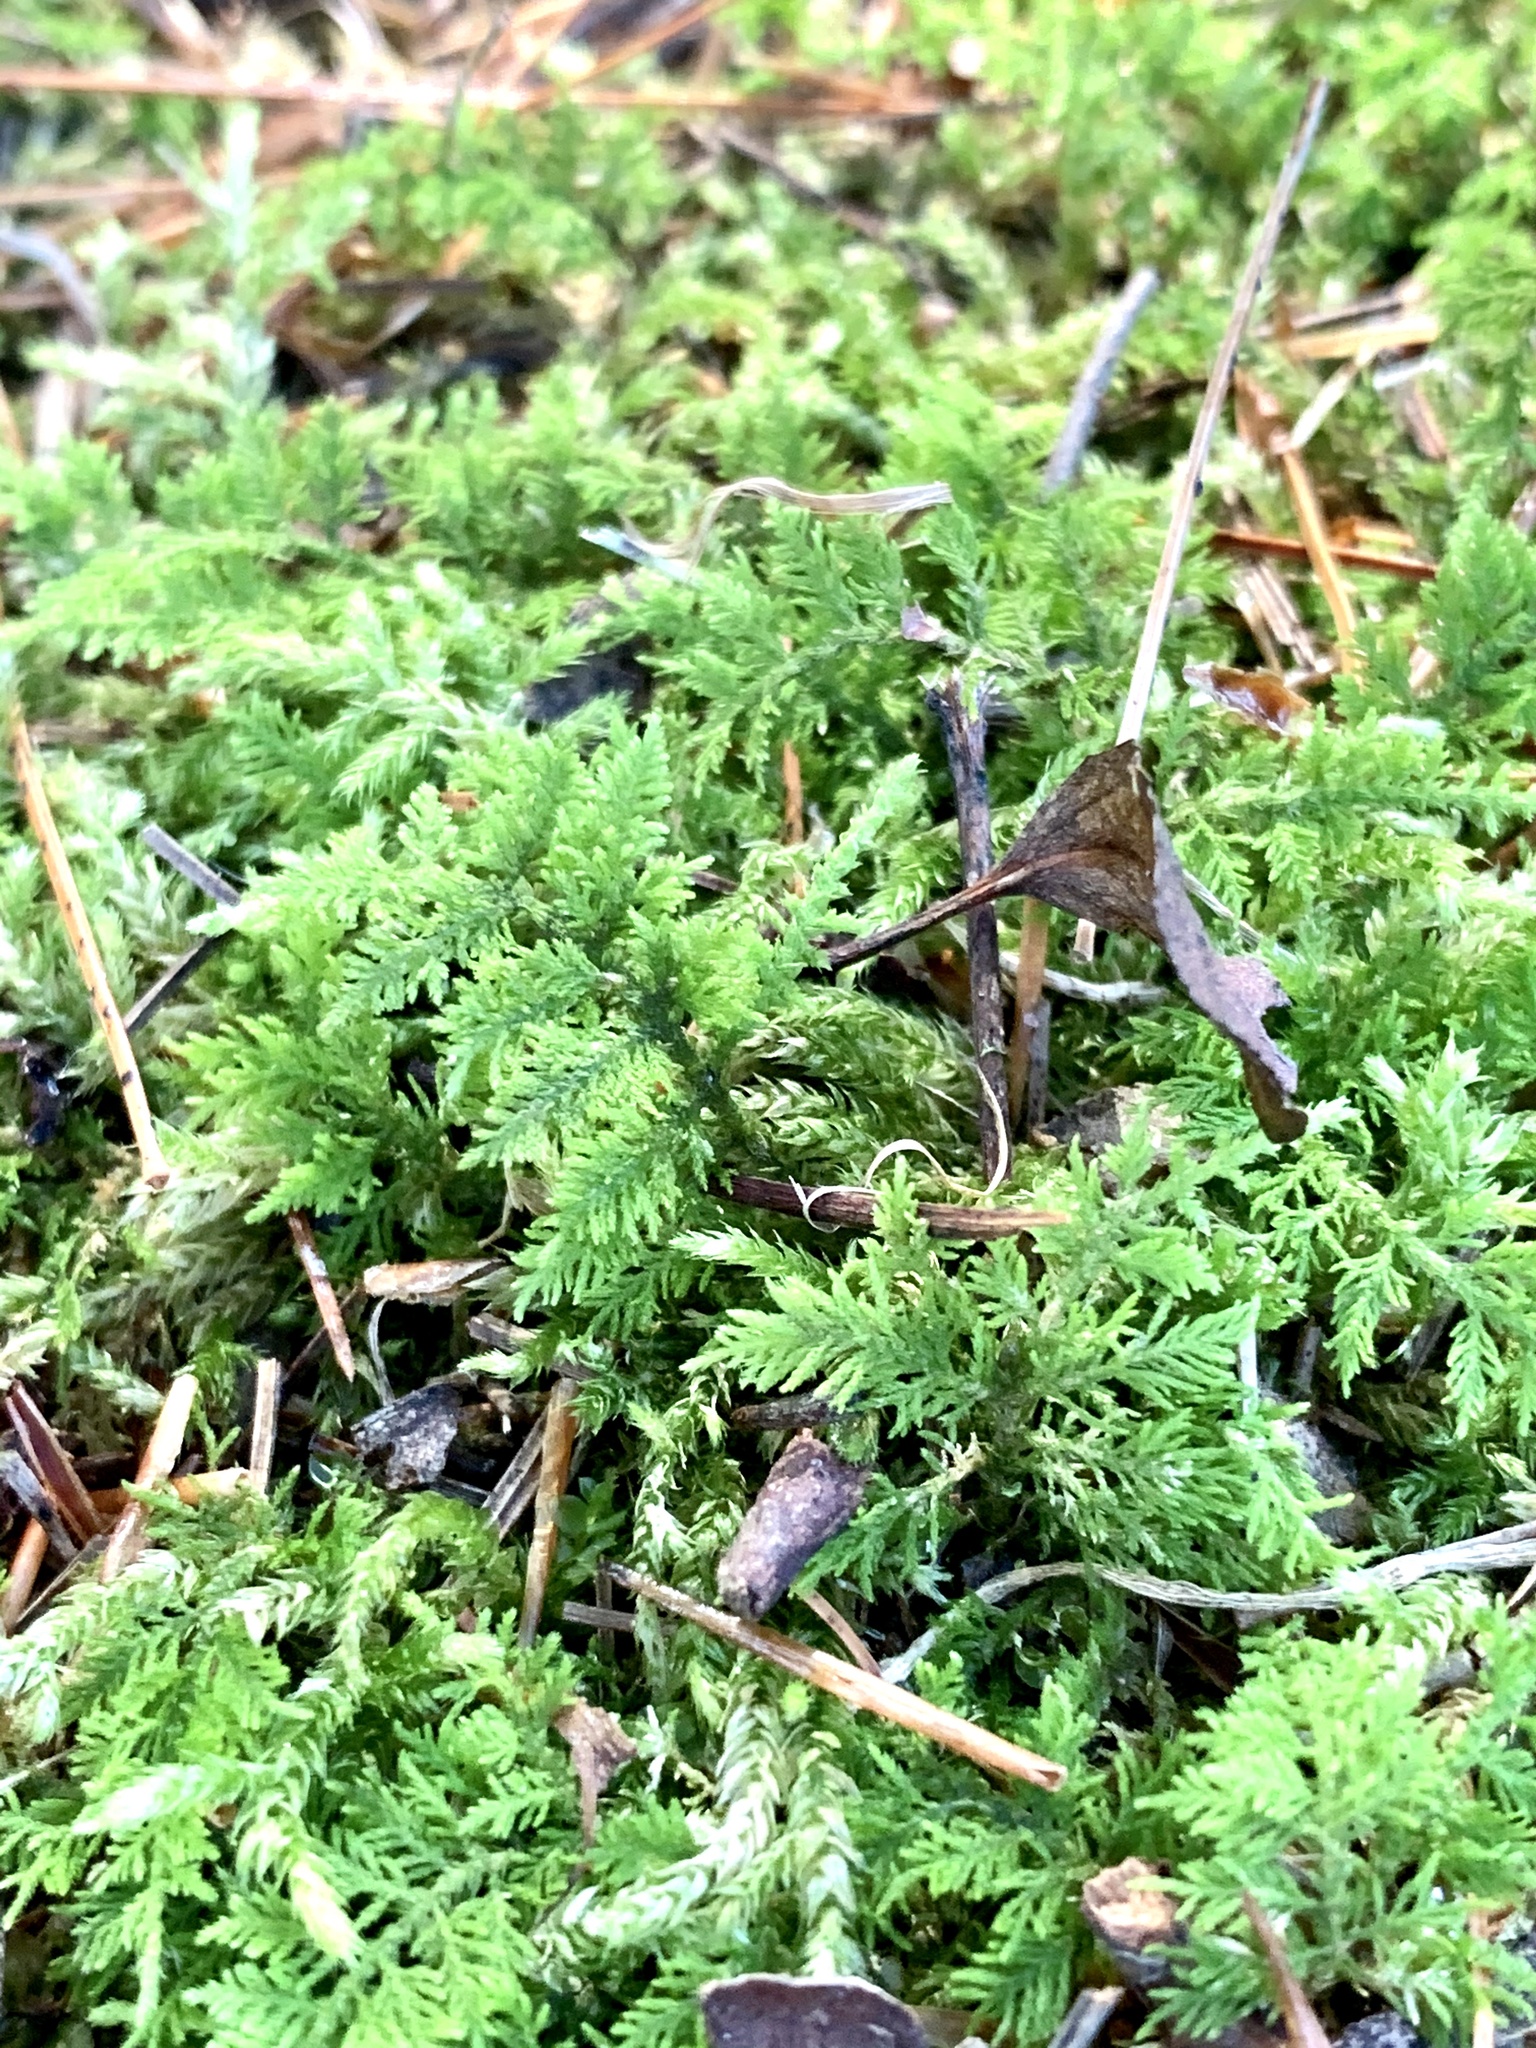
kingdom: Plantae
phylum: Bryophyta
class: Bryopsida
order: Hypnales
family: Thuidiaceae
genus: Thuidium
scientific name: Thuidium delicatulum
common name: Delicate fern moss
